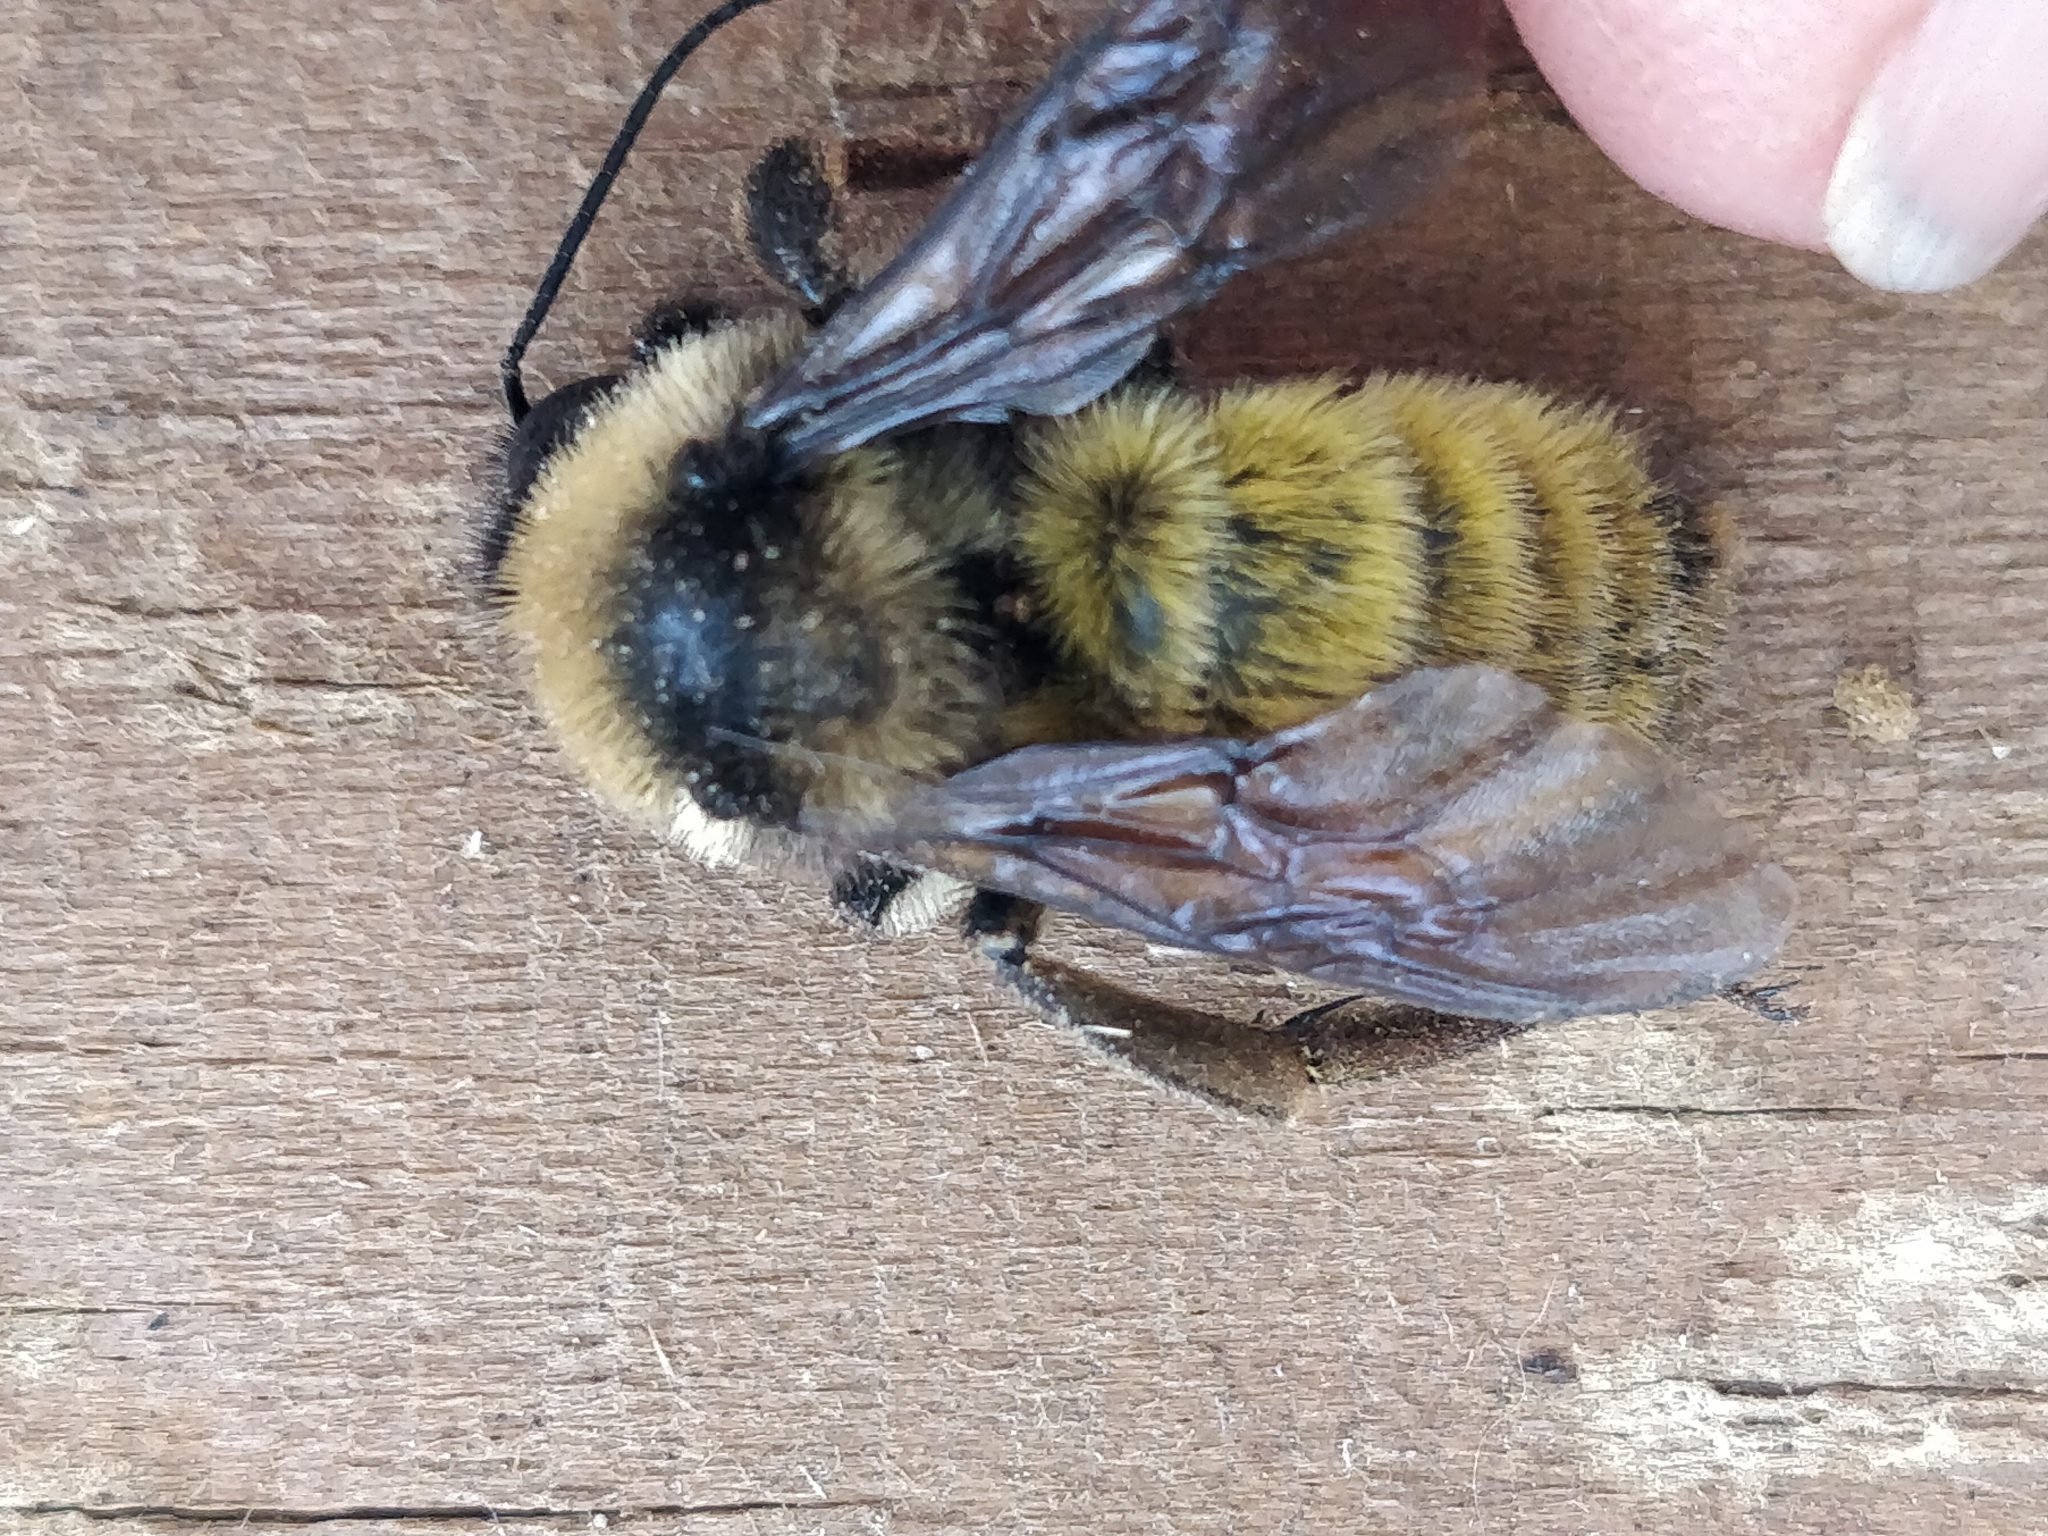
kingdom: Animalia
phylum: Arthropoda
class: Insecta
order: Hymenoptera
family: Apidae
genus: Bombus
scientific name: Bombus pensylvanicus
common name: Bumble bee
